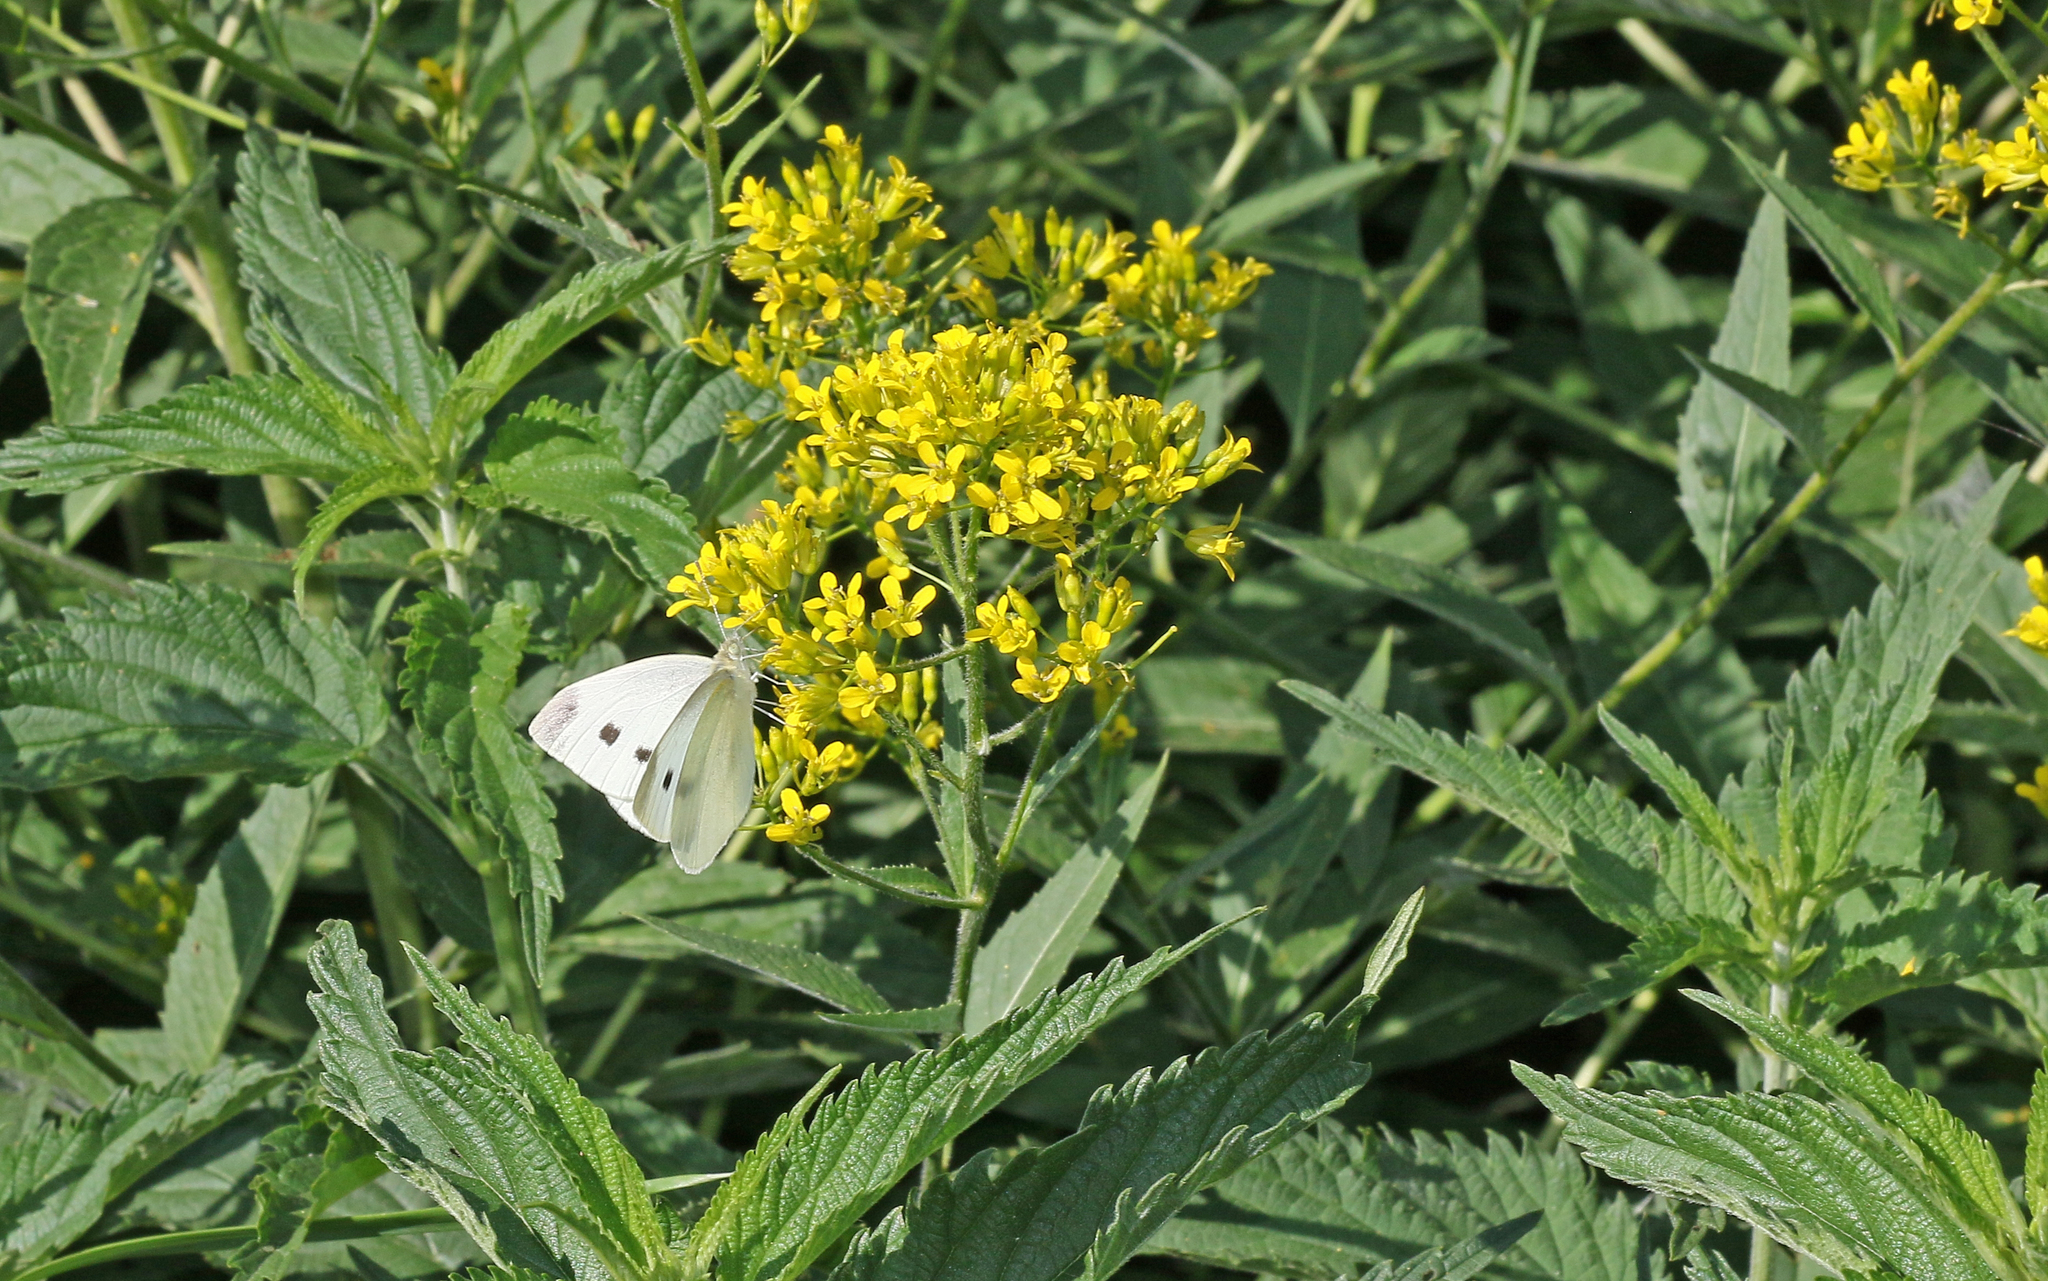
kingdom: Animalia
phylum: Arthropoda
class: Insecta
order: Lepidoptera
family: Pieridae
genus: Pieris
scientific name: Pieris rapae
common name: Small white
